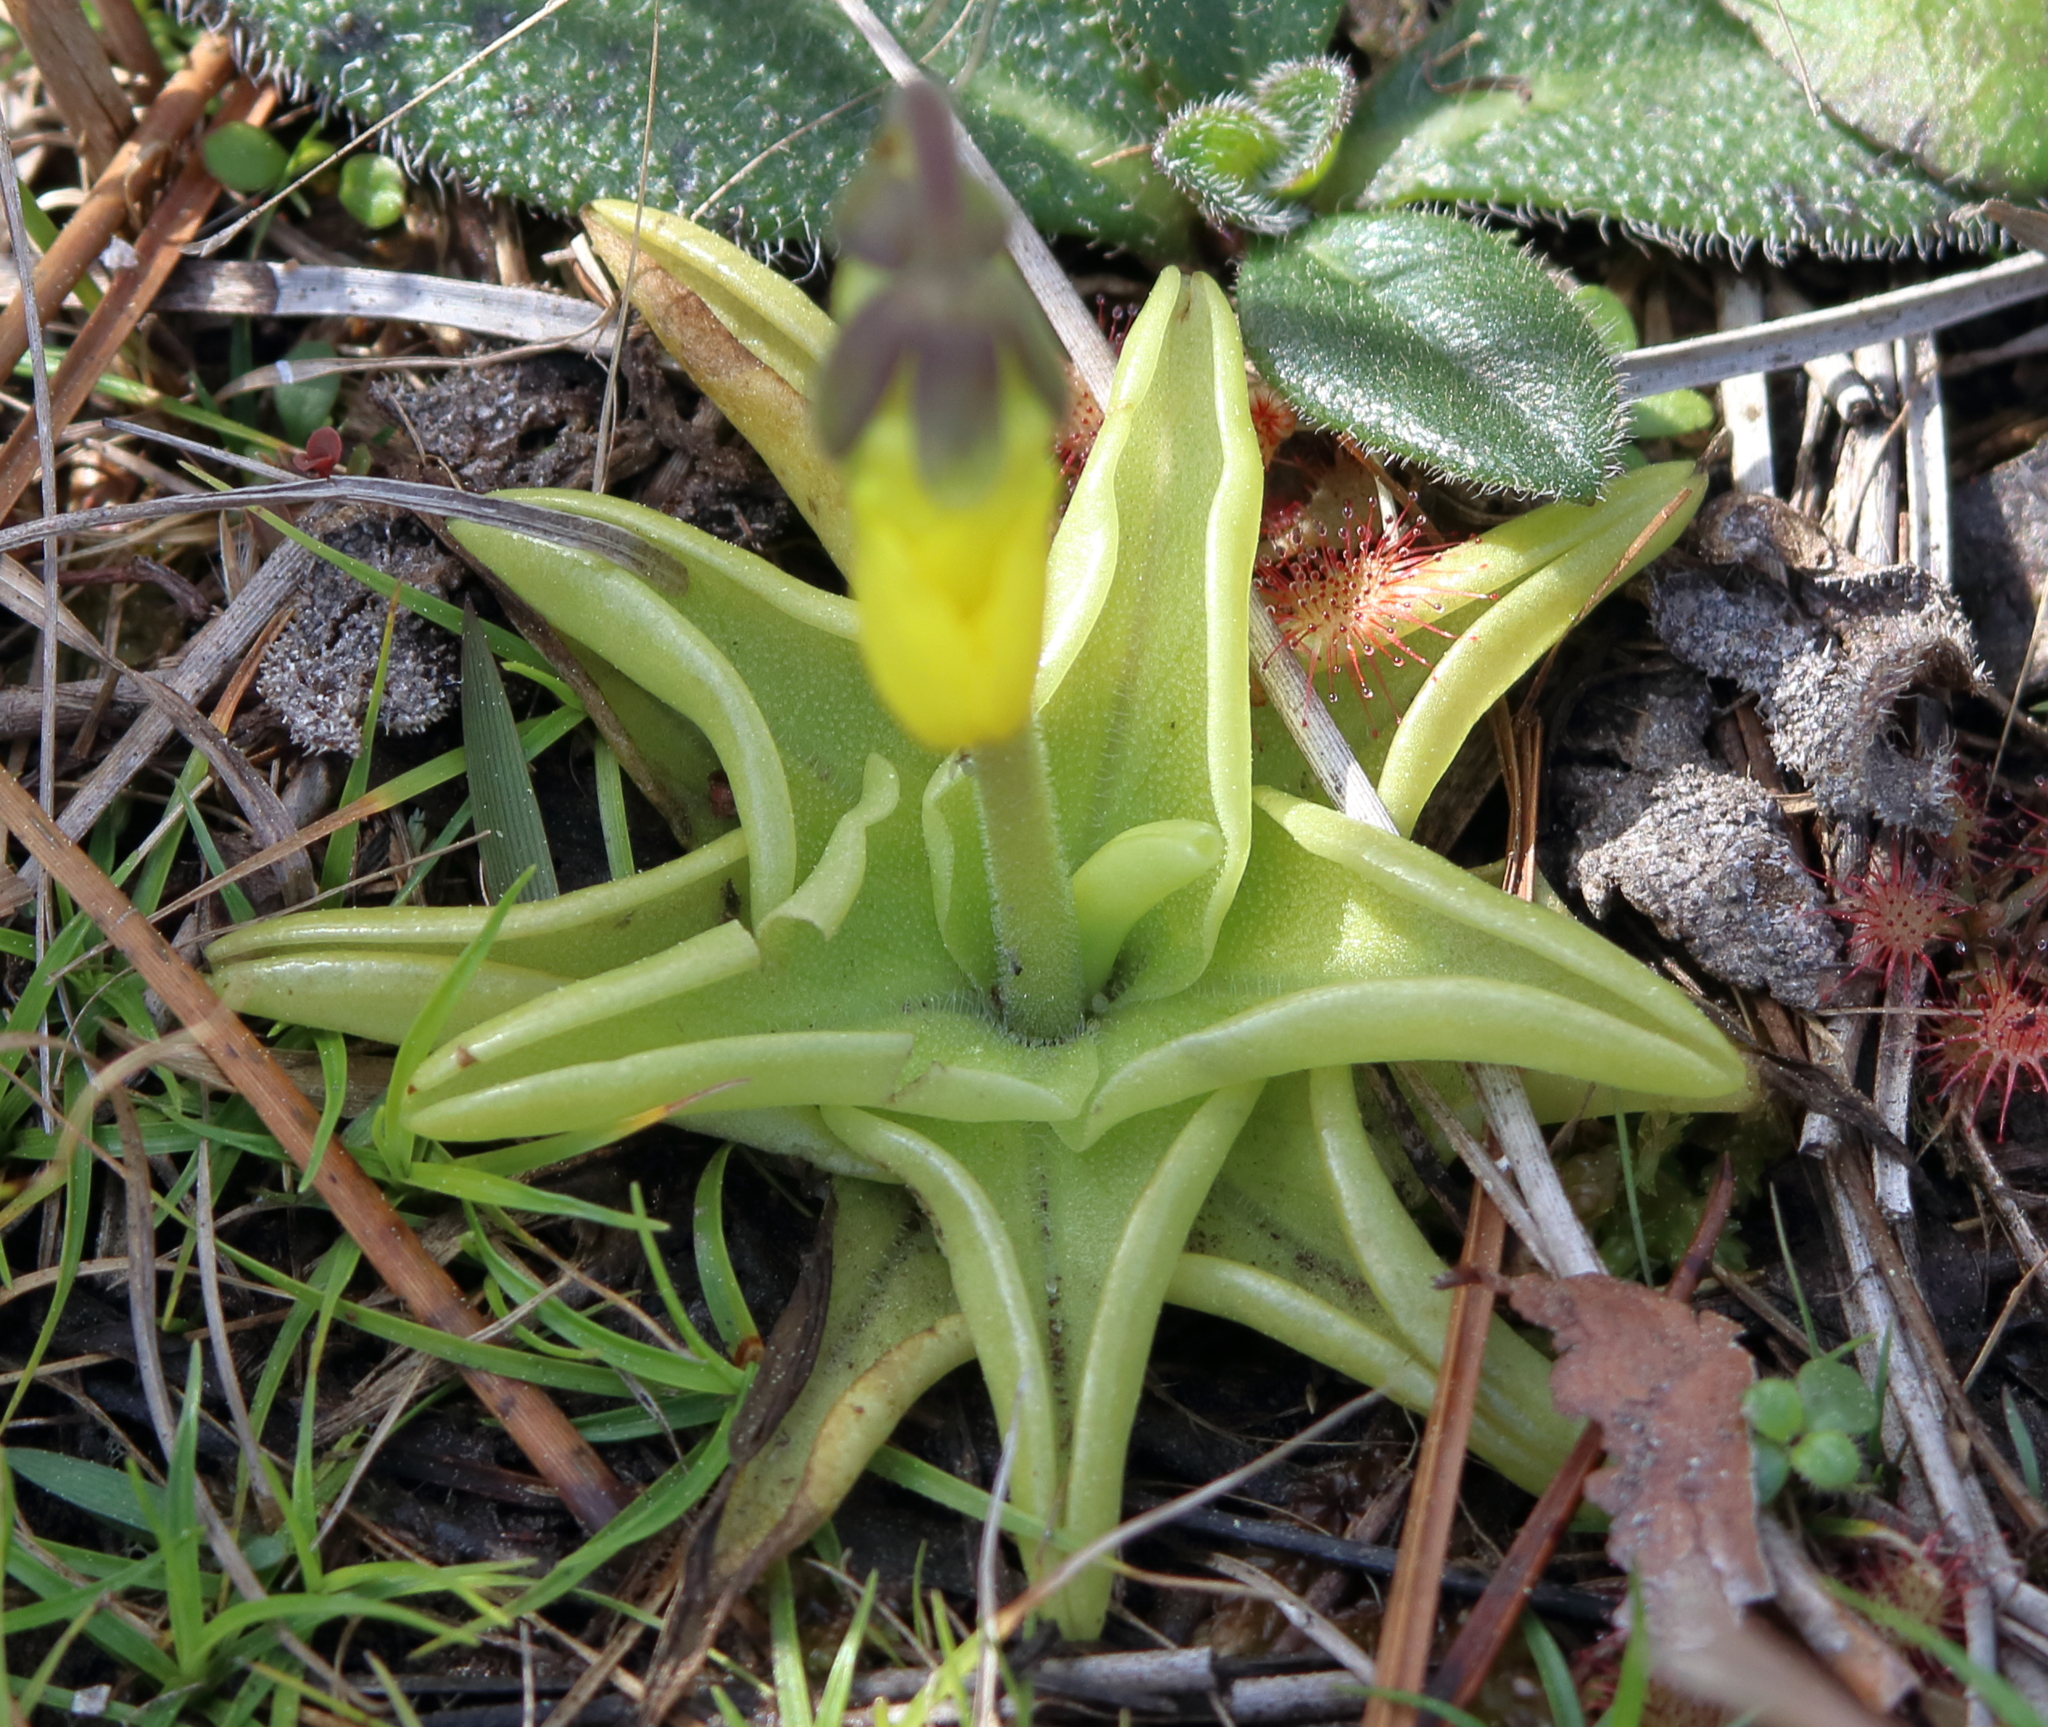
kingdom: Plantae
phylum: Tracheophyta
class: Magnoliopsida
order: Lamiales
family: Lentibulariaceae
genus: Pinguicula
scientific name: Pinguicula lutea
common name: Yellow butterwort
